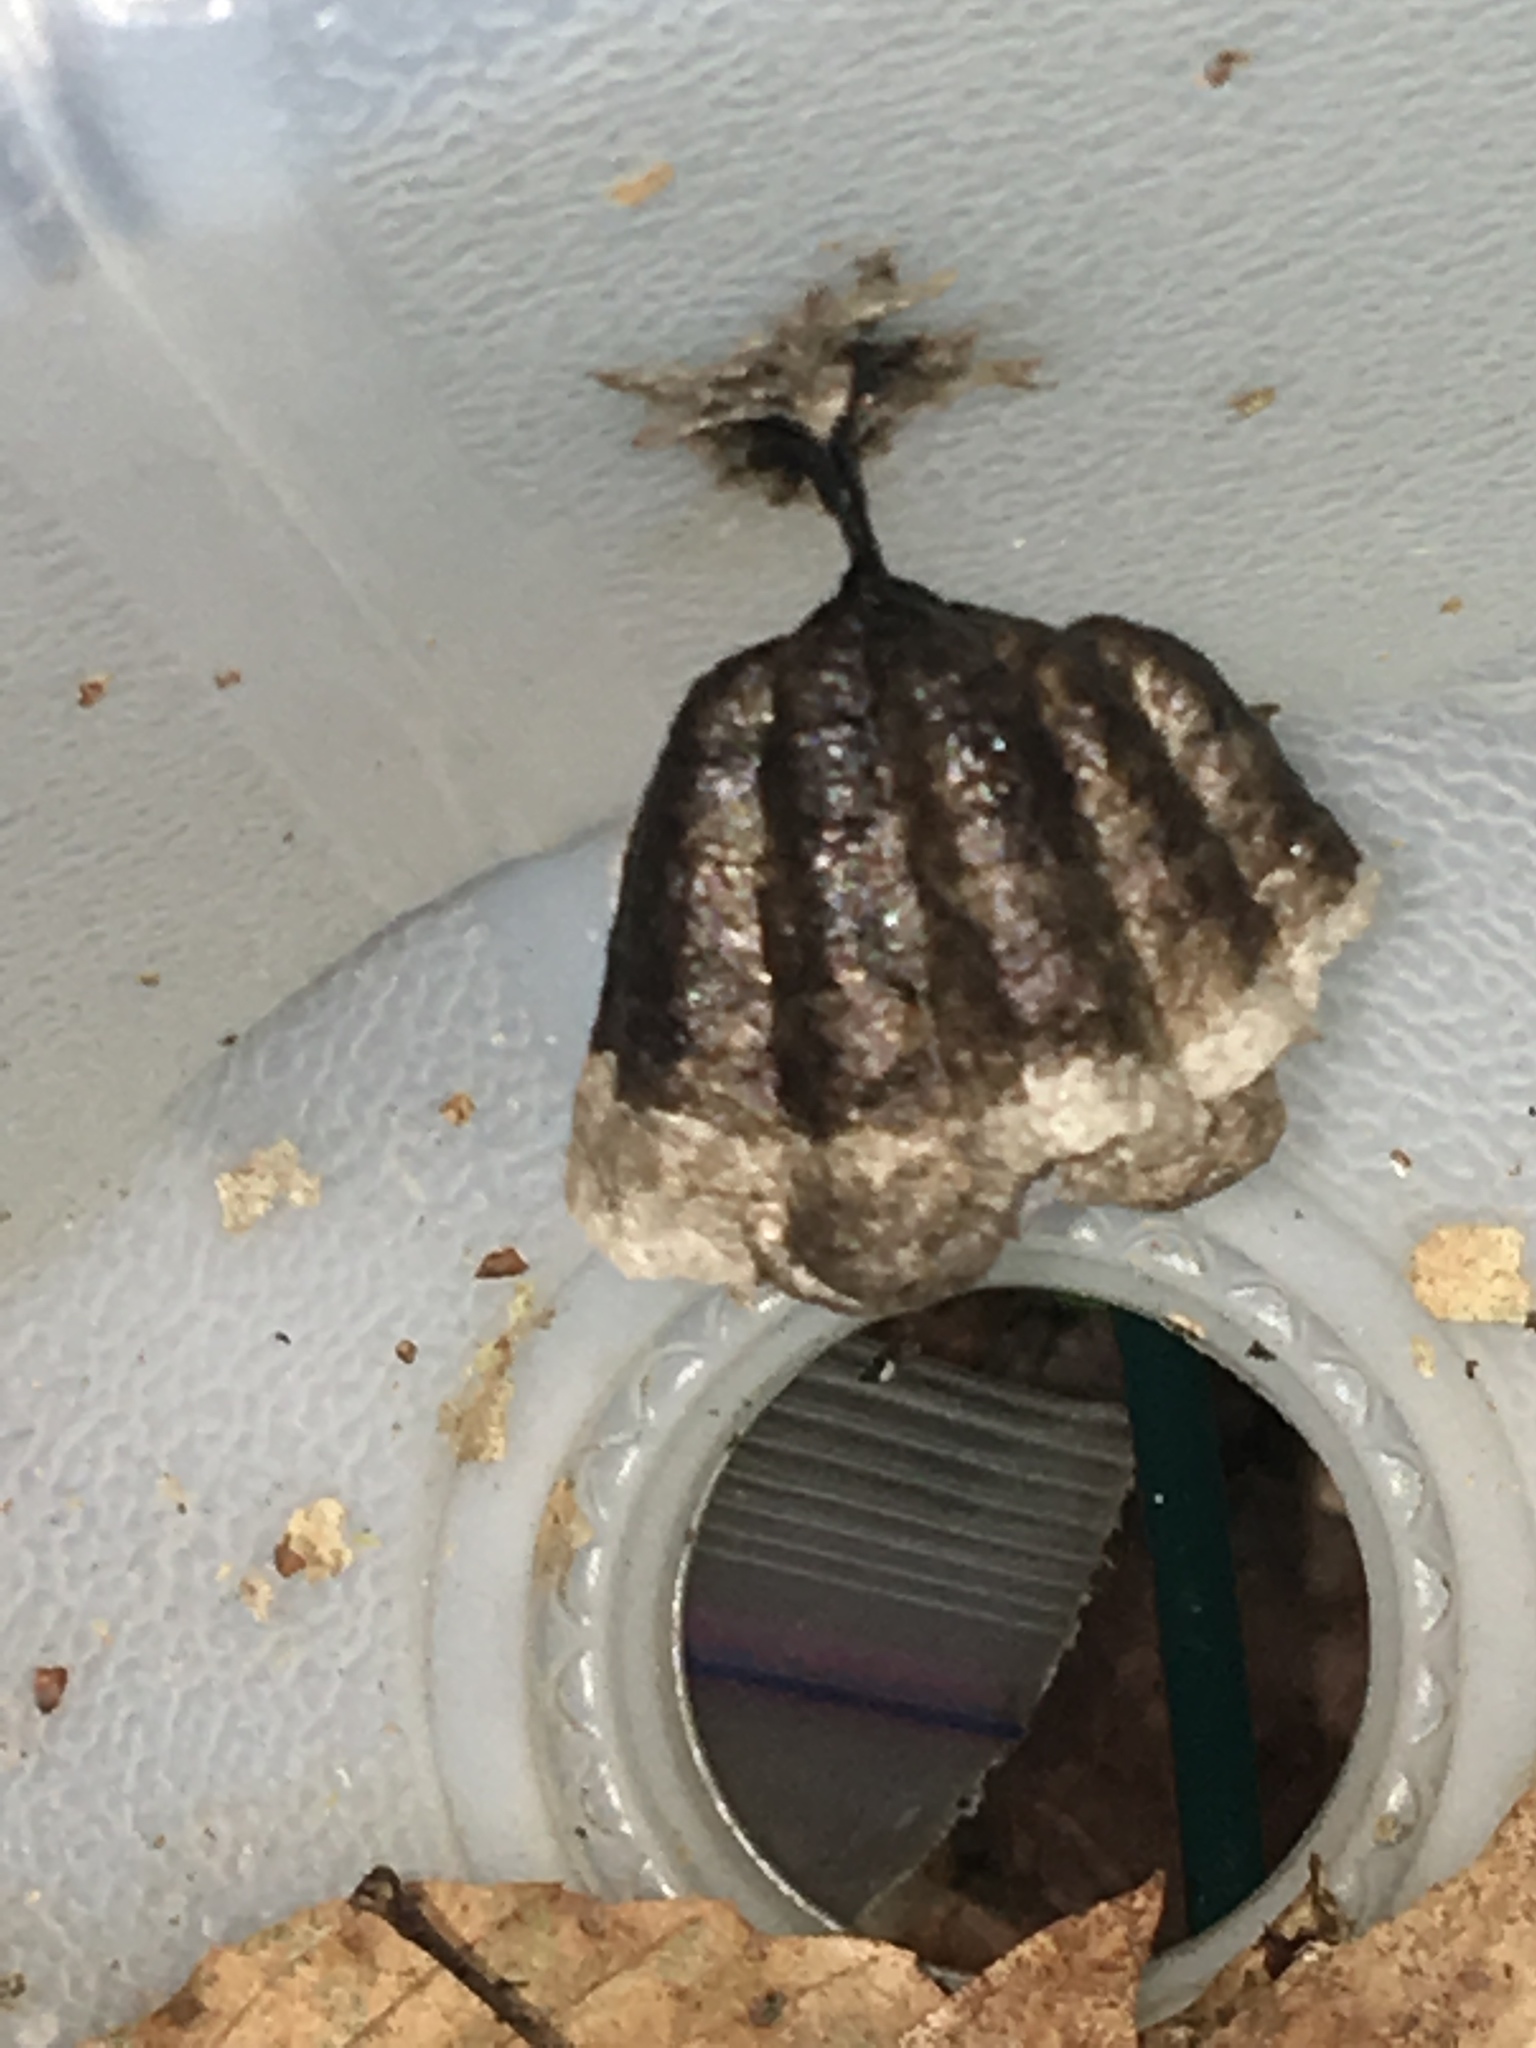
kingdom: Animalia
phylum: Arthropoda
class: Insecta
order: Hymenoptera
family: Eumenidae
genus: Polistes
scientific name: Polistes
